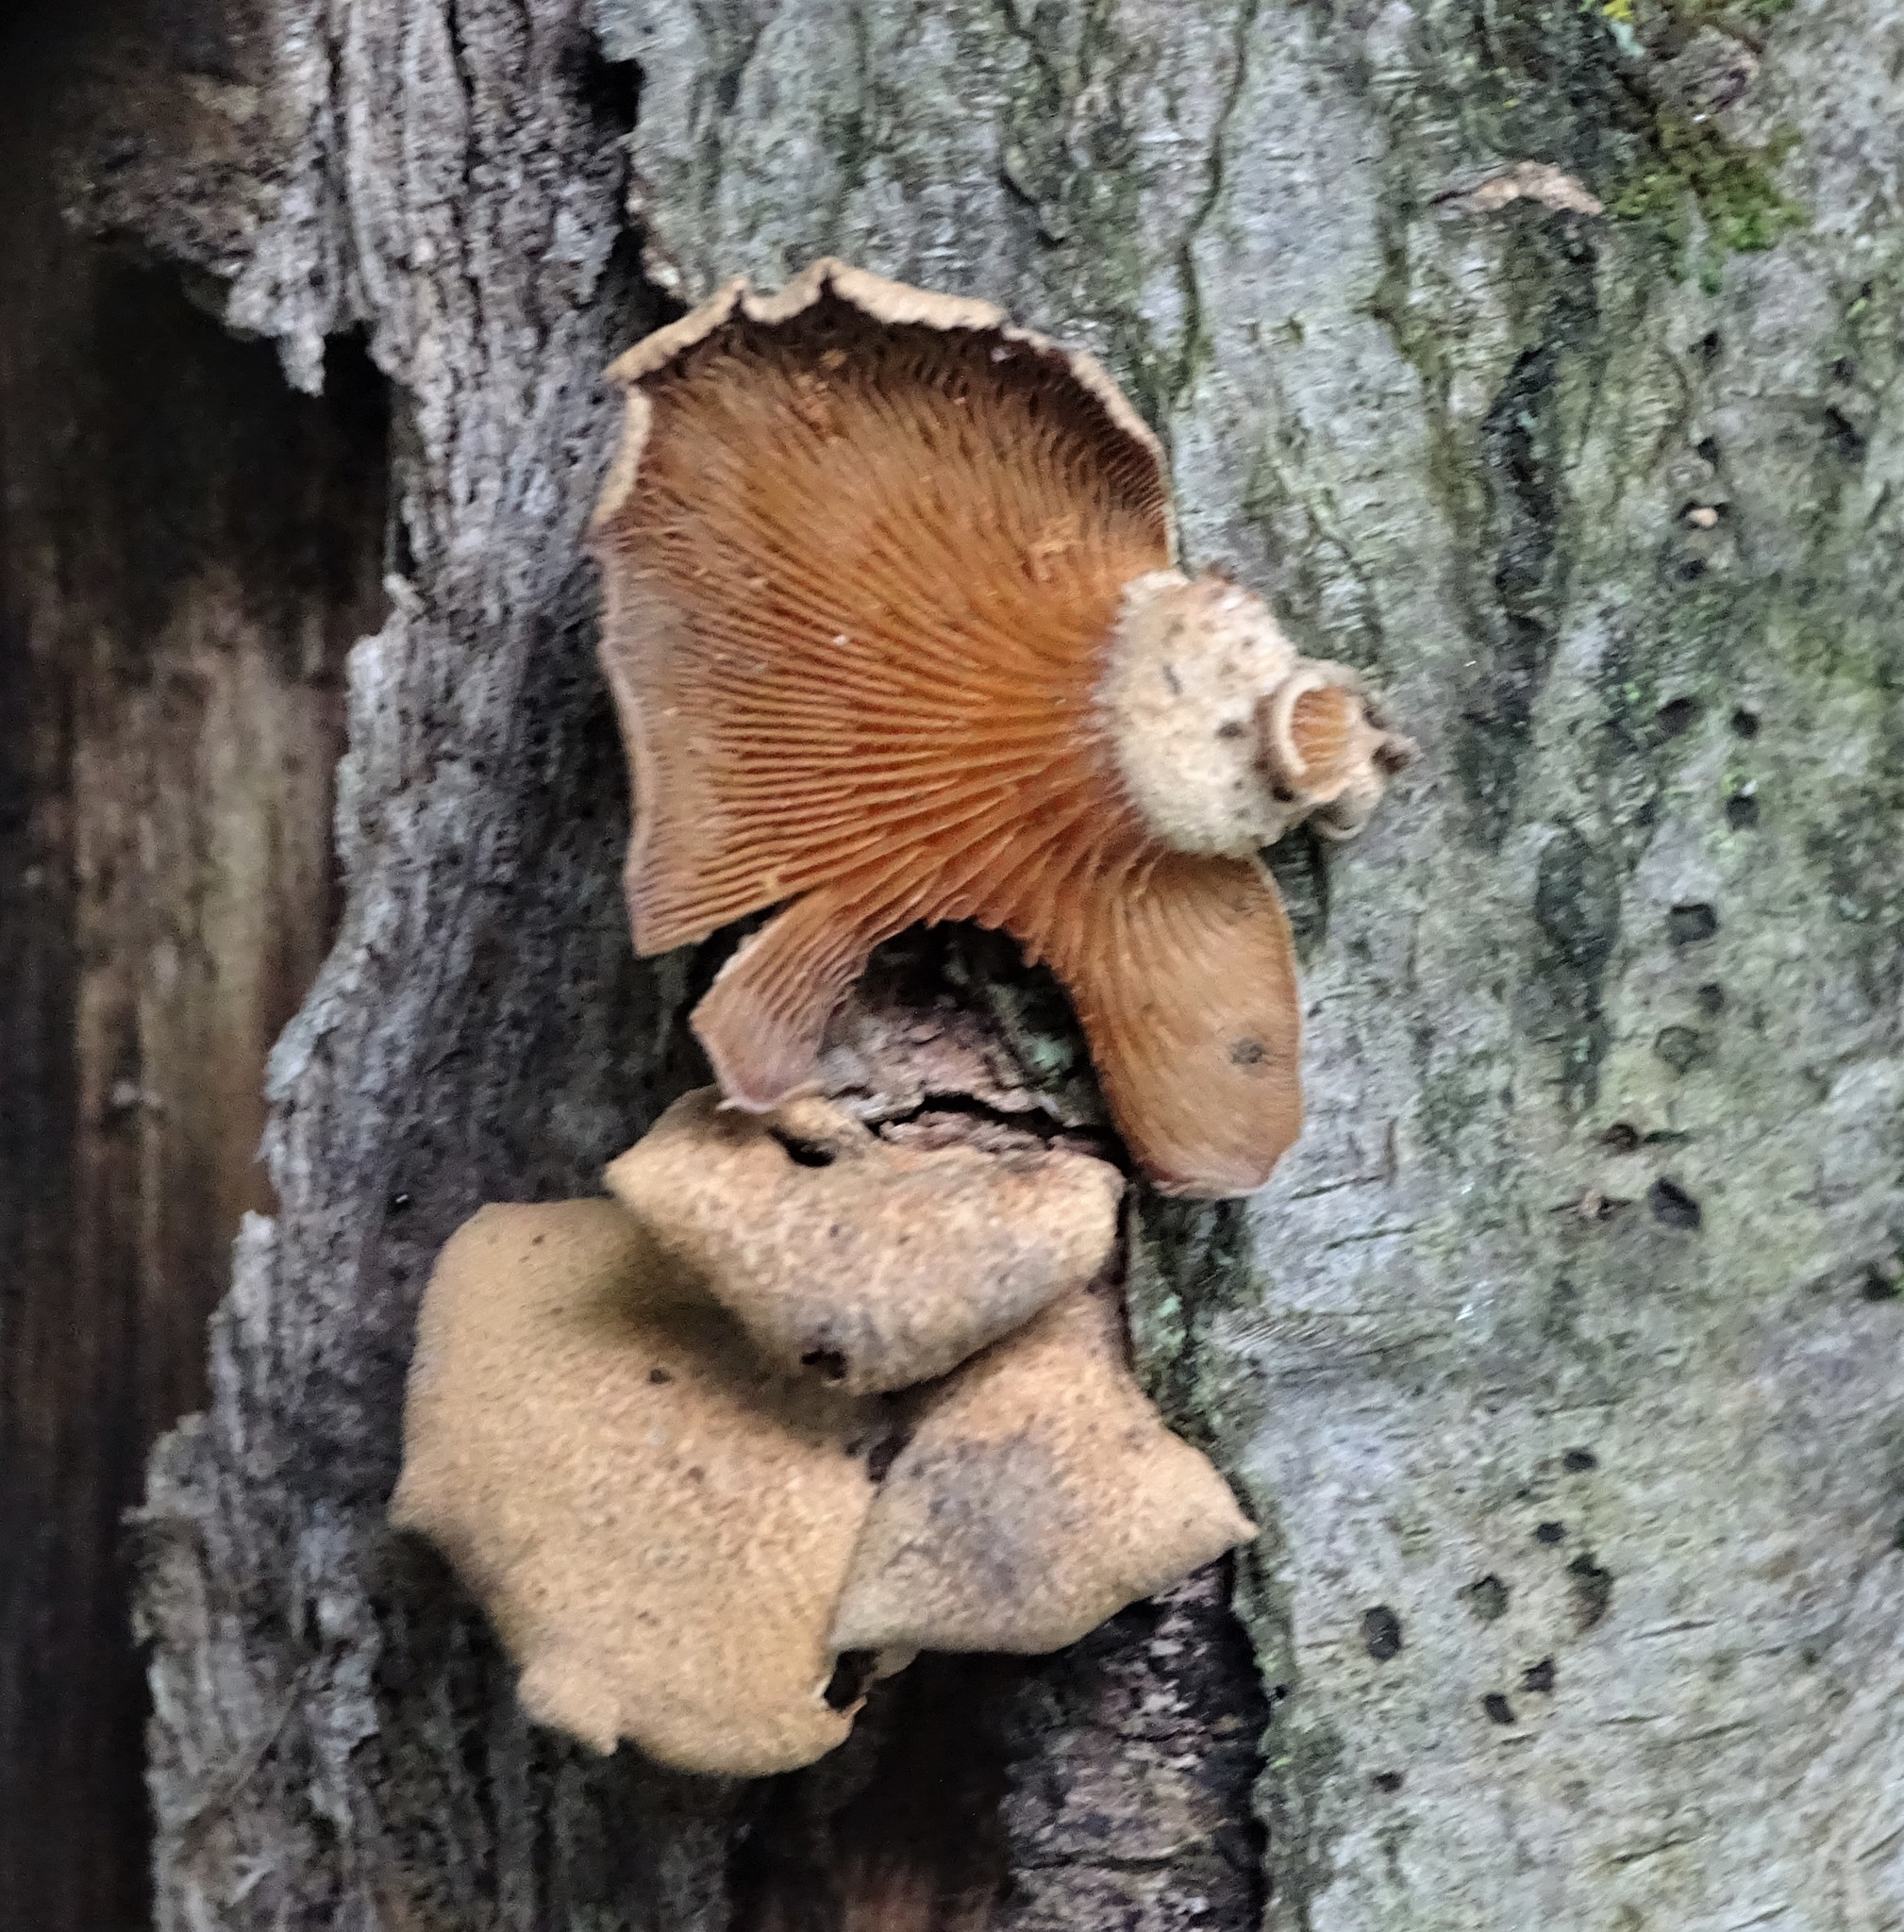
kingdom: Fungi
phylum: Basidiomycota
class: Agaricomycetes
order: Agaricales
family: Mycenaceae
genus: Panellus
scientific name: Panellus stipticus
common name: Bitter oysterling
